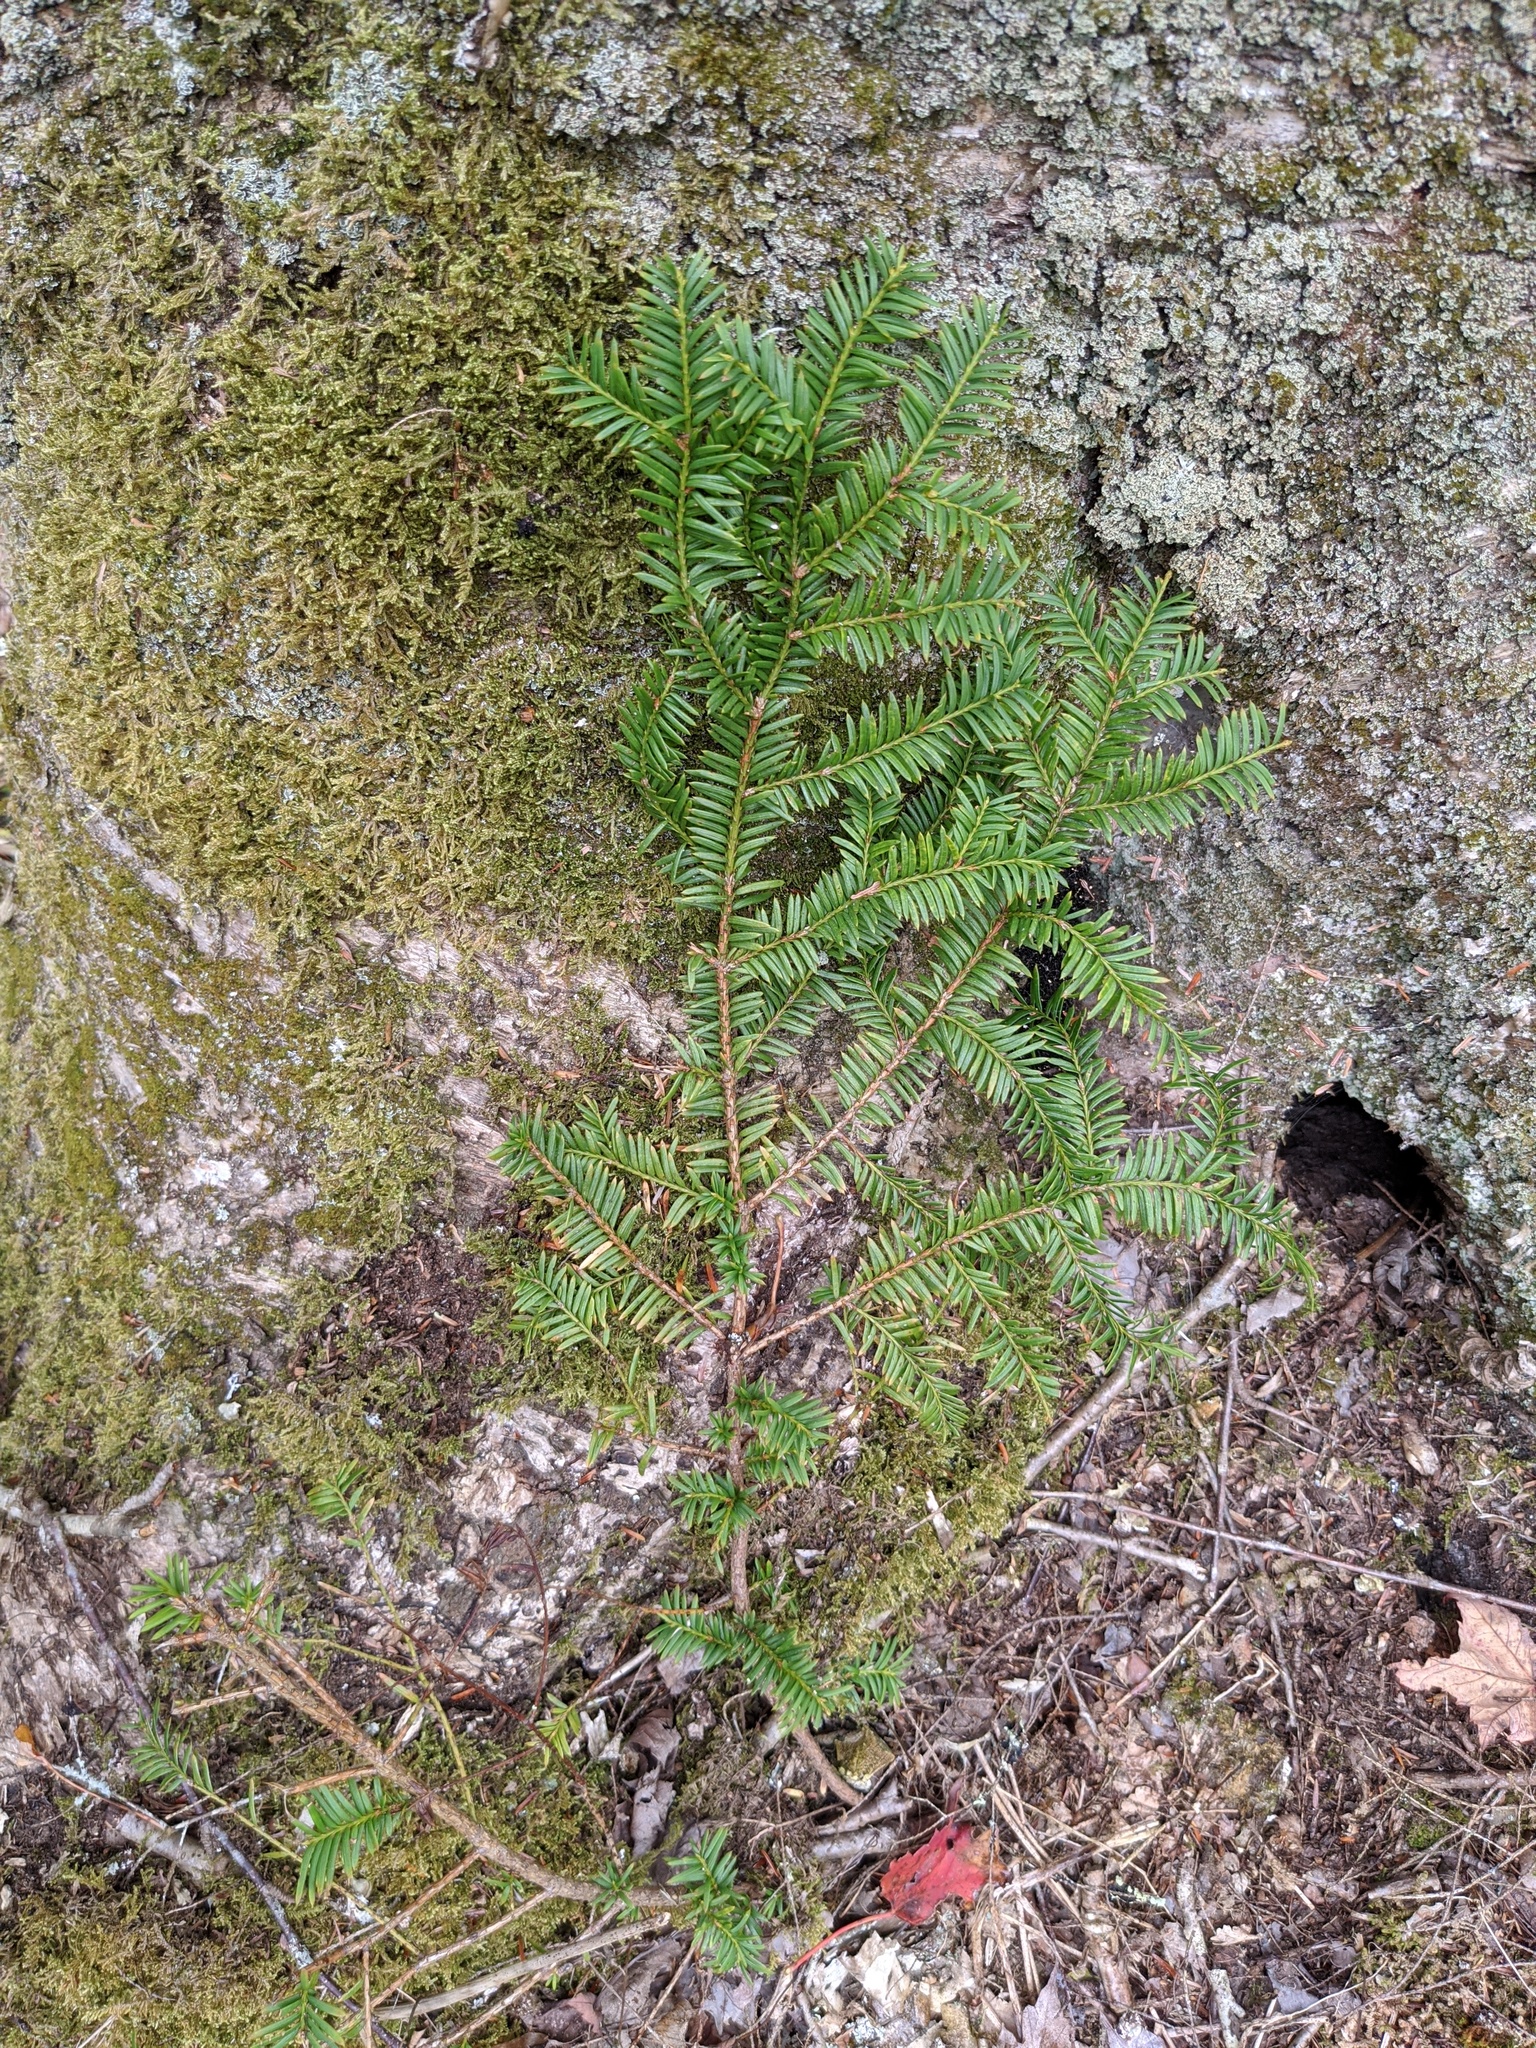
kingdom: Plantae
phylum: Tracheophyta
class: Pinopsida
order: Pinales
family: Taxaceae
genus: Taxus
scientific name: Taxus canadensis
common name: American yew
